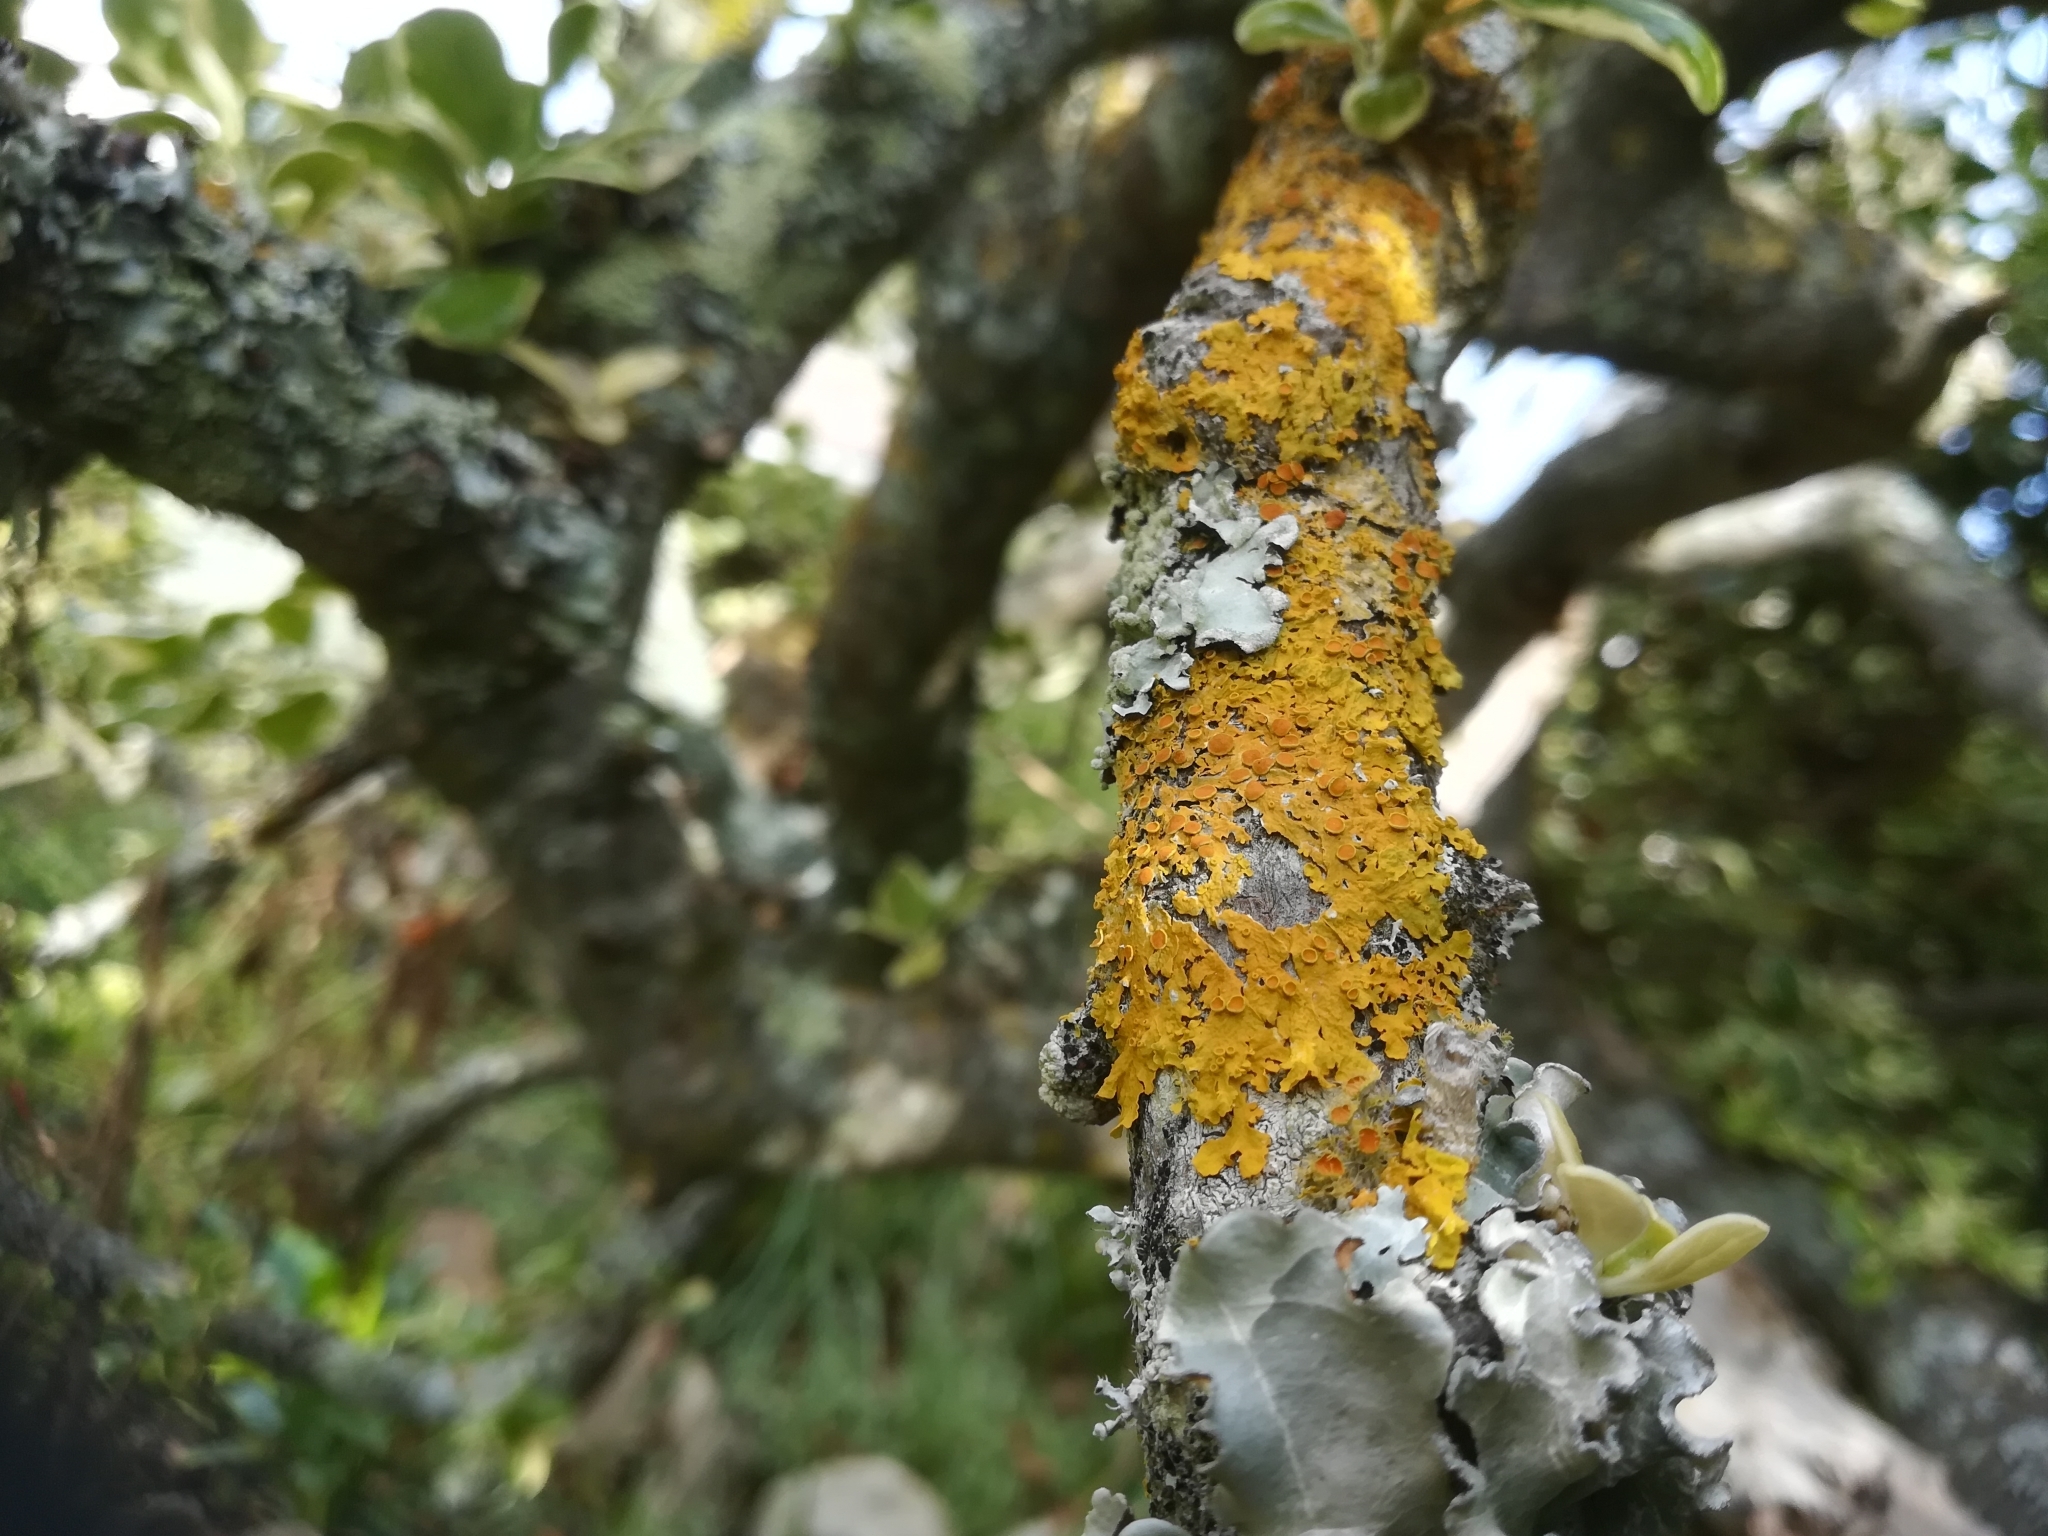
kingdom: Fungi
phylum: Ascomycota
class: Lecanoromycetes
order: Teloschistales
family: Teloschistaceae
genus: Xanthoria
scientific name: Xanthoria parietina
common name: Common orange lichen
